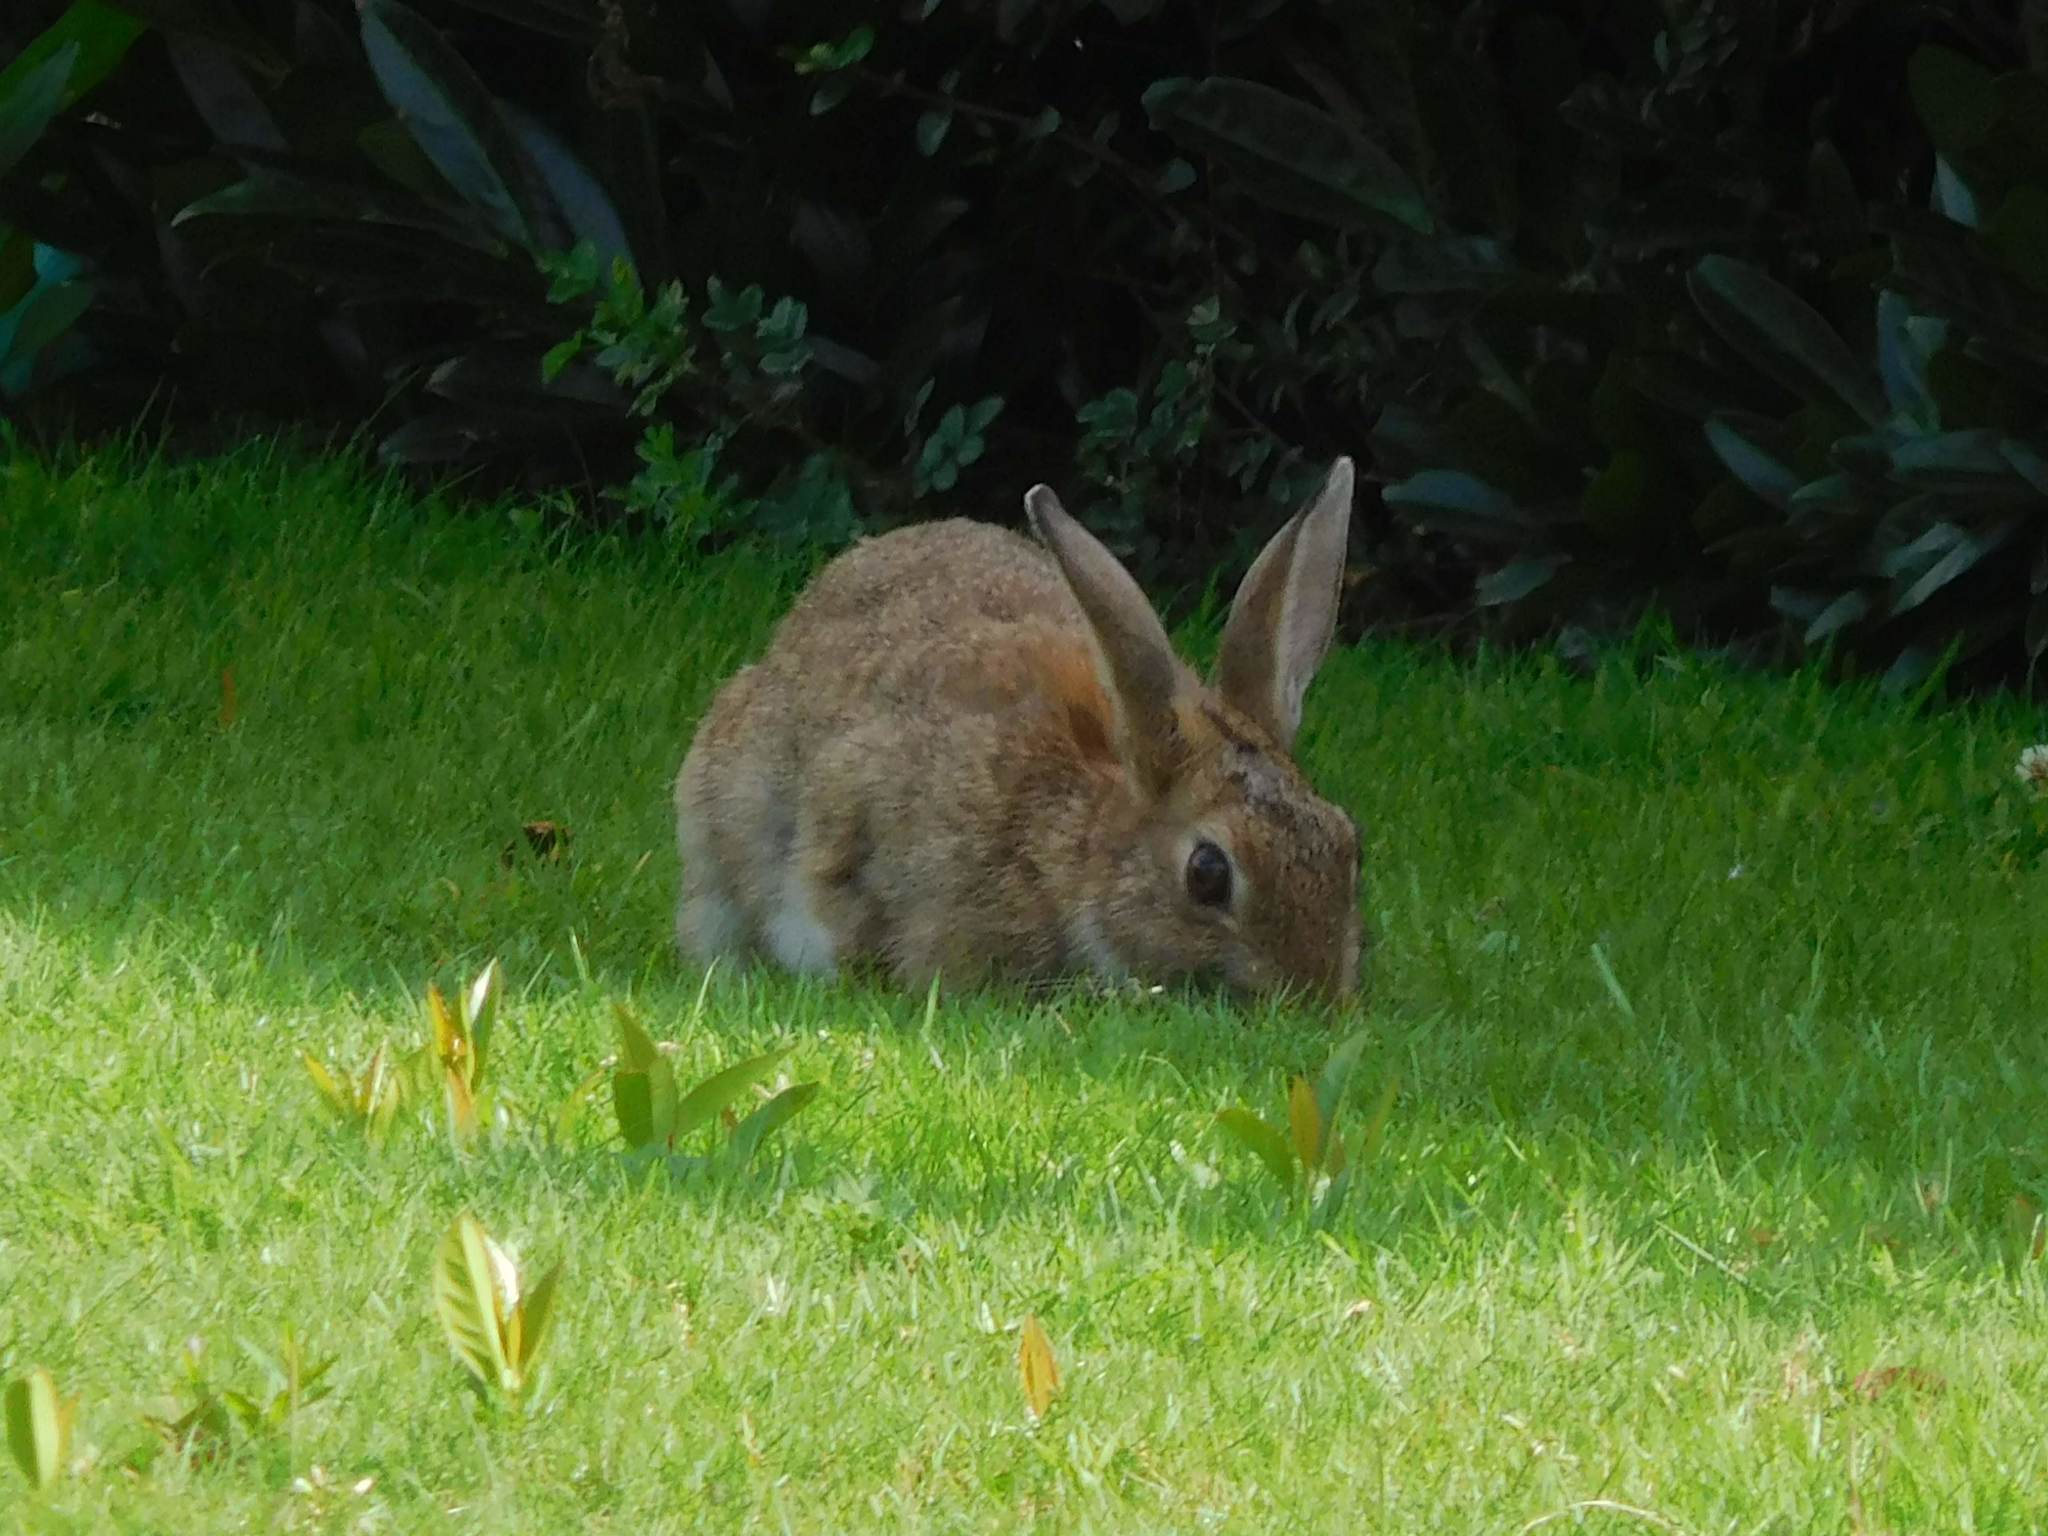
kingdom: Animalia
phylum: Chordata
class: Mammalia
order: Lagomorpha
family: Leporidae
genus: Oryctolagus
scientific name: Oryctolagus cuniculus
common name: European rabbit
